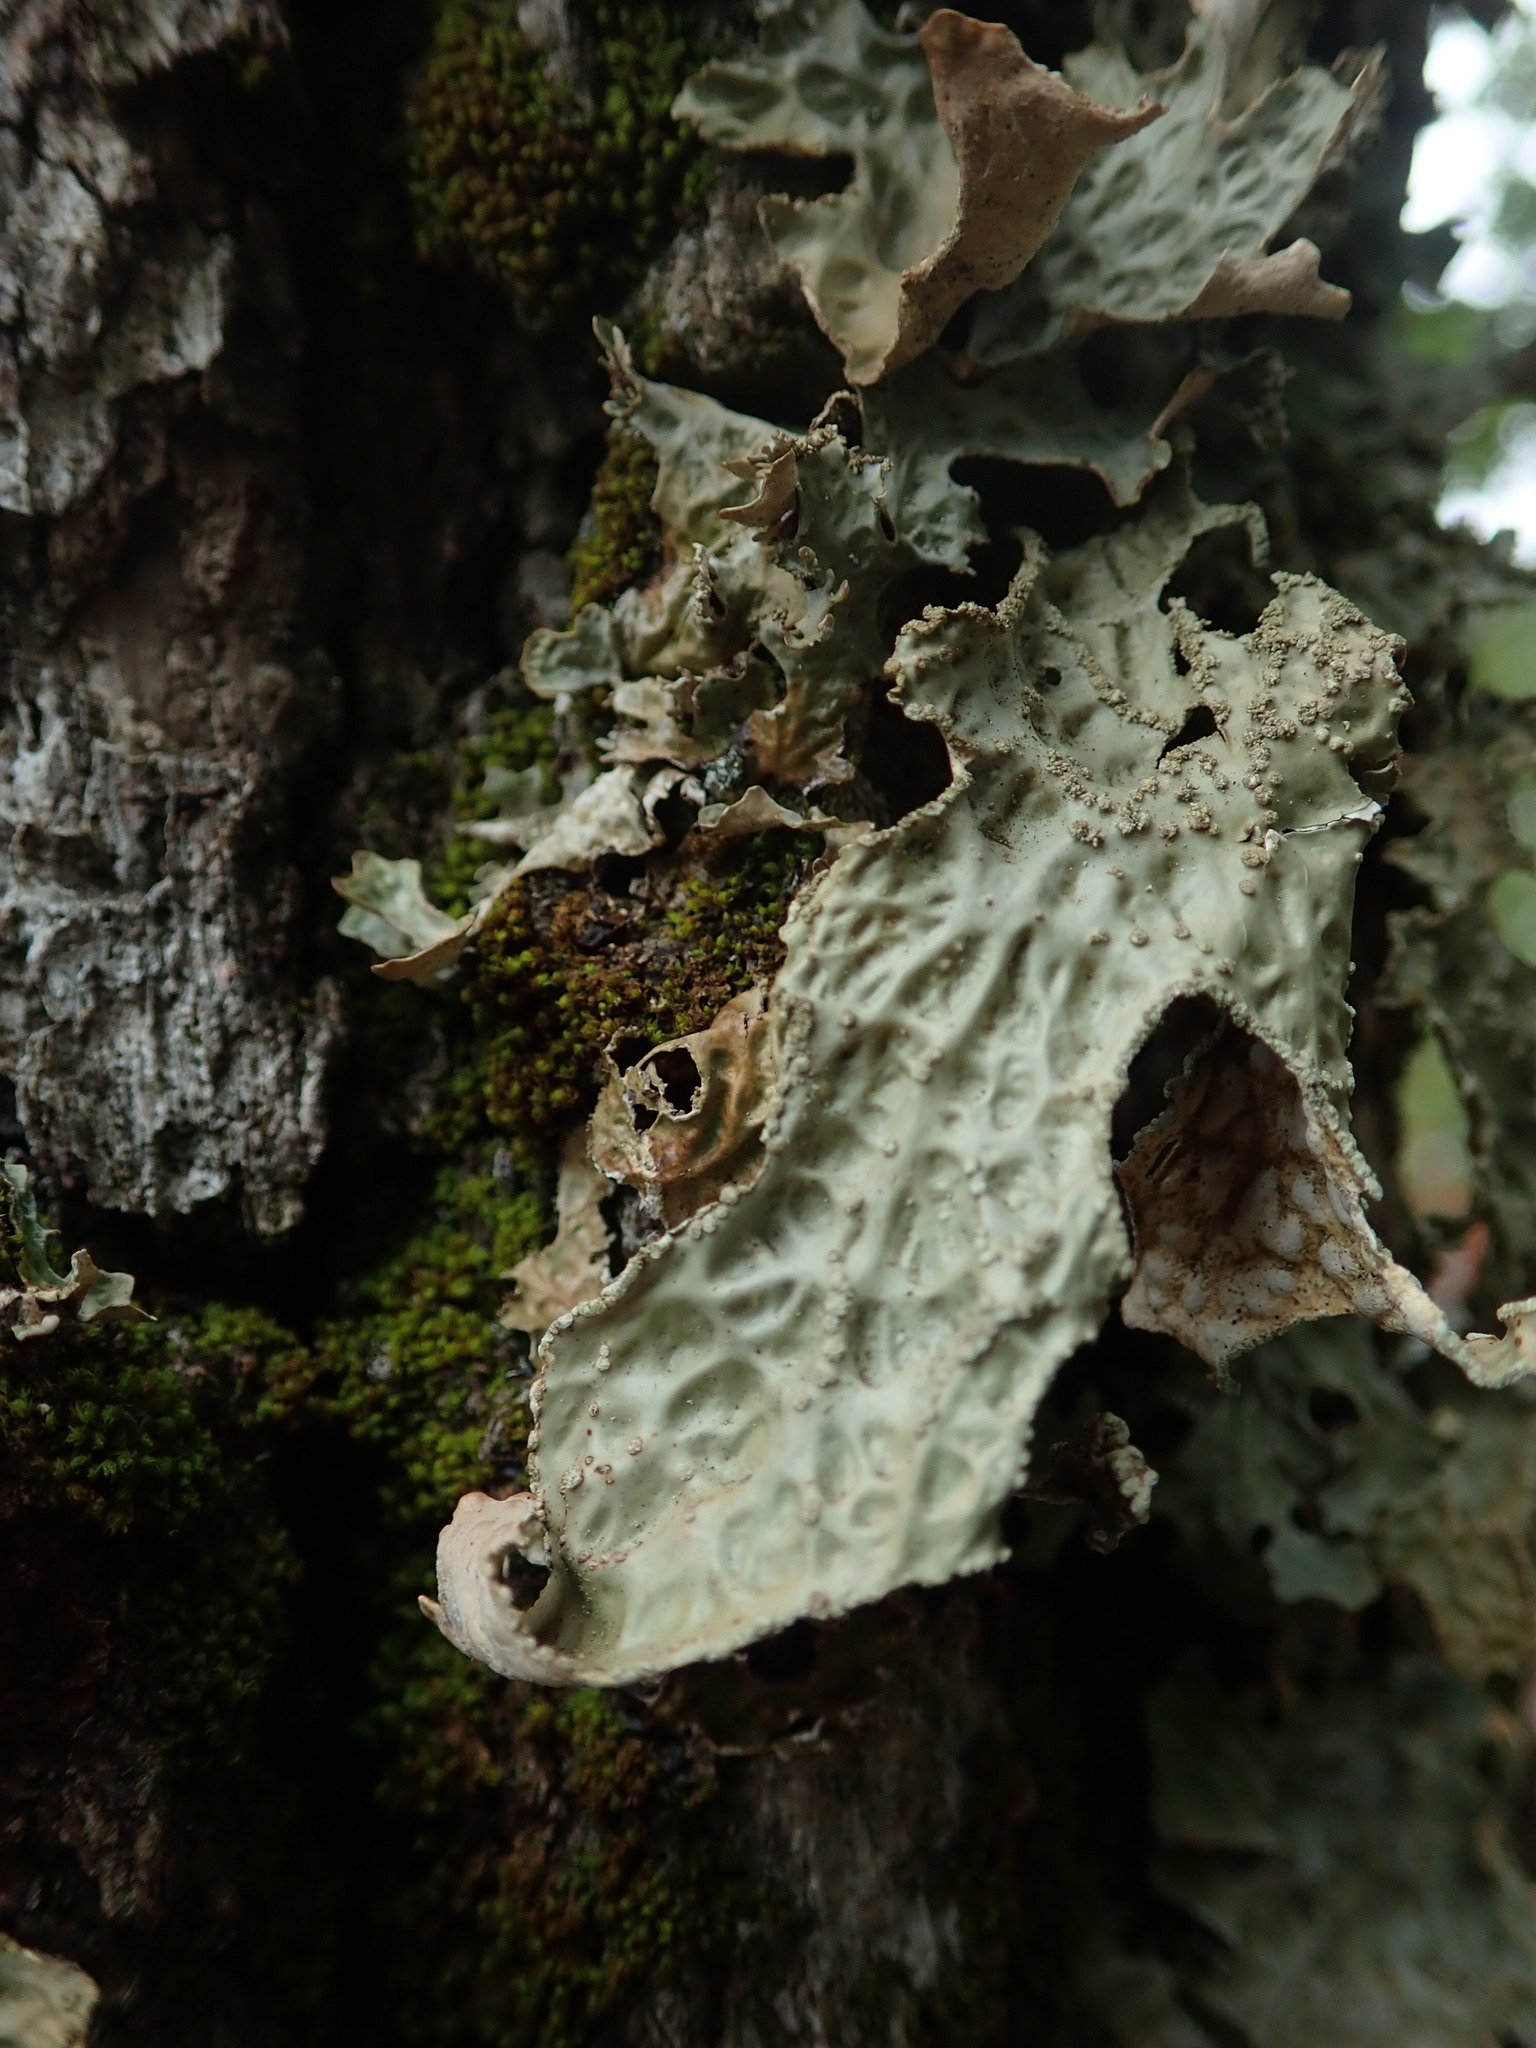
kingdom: Fungi
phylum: Ascomycota
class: Lecanoromycetes
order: Peltigerales
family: Lobariaceae
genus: Lobaria
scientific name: Lobaria pulmonaria
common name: Lungwort
